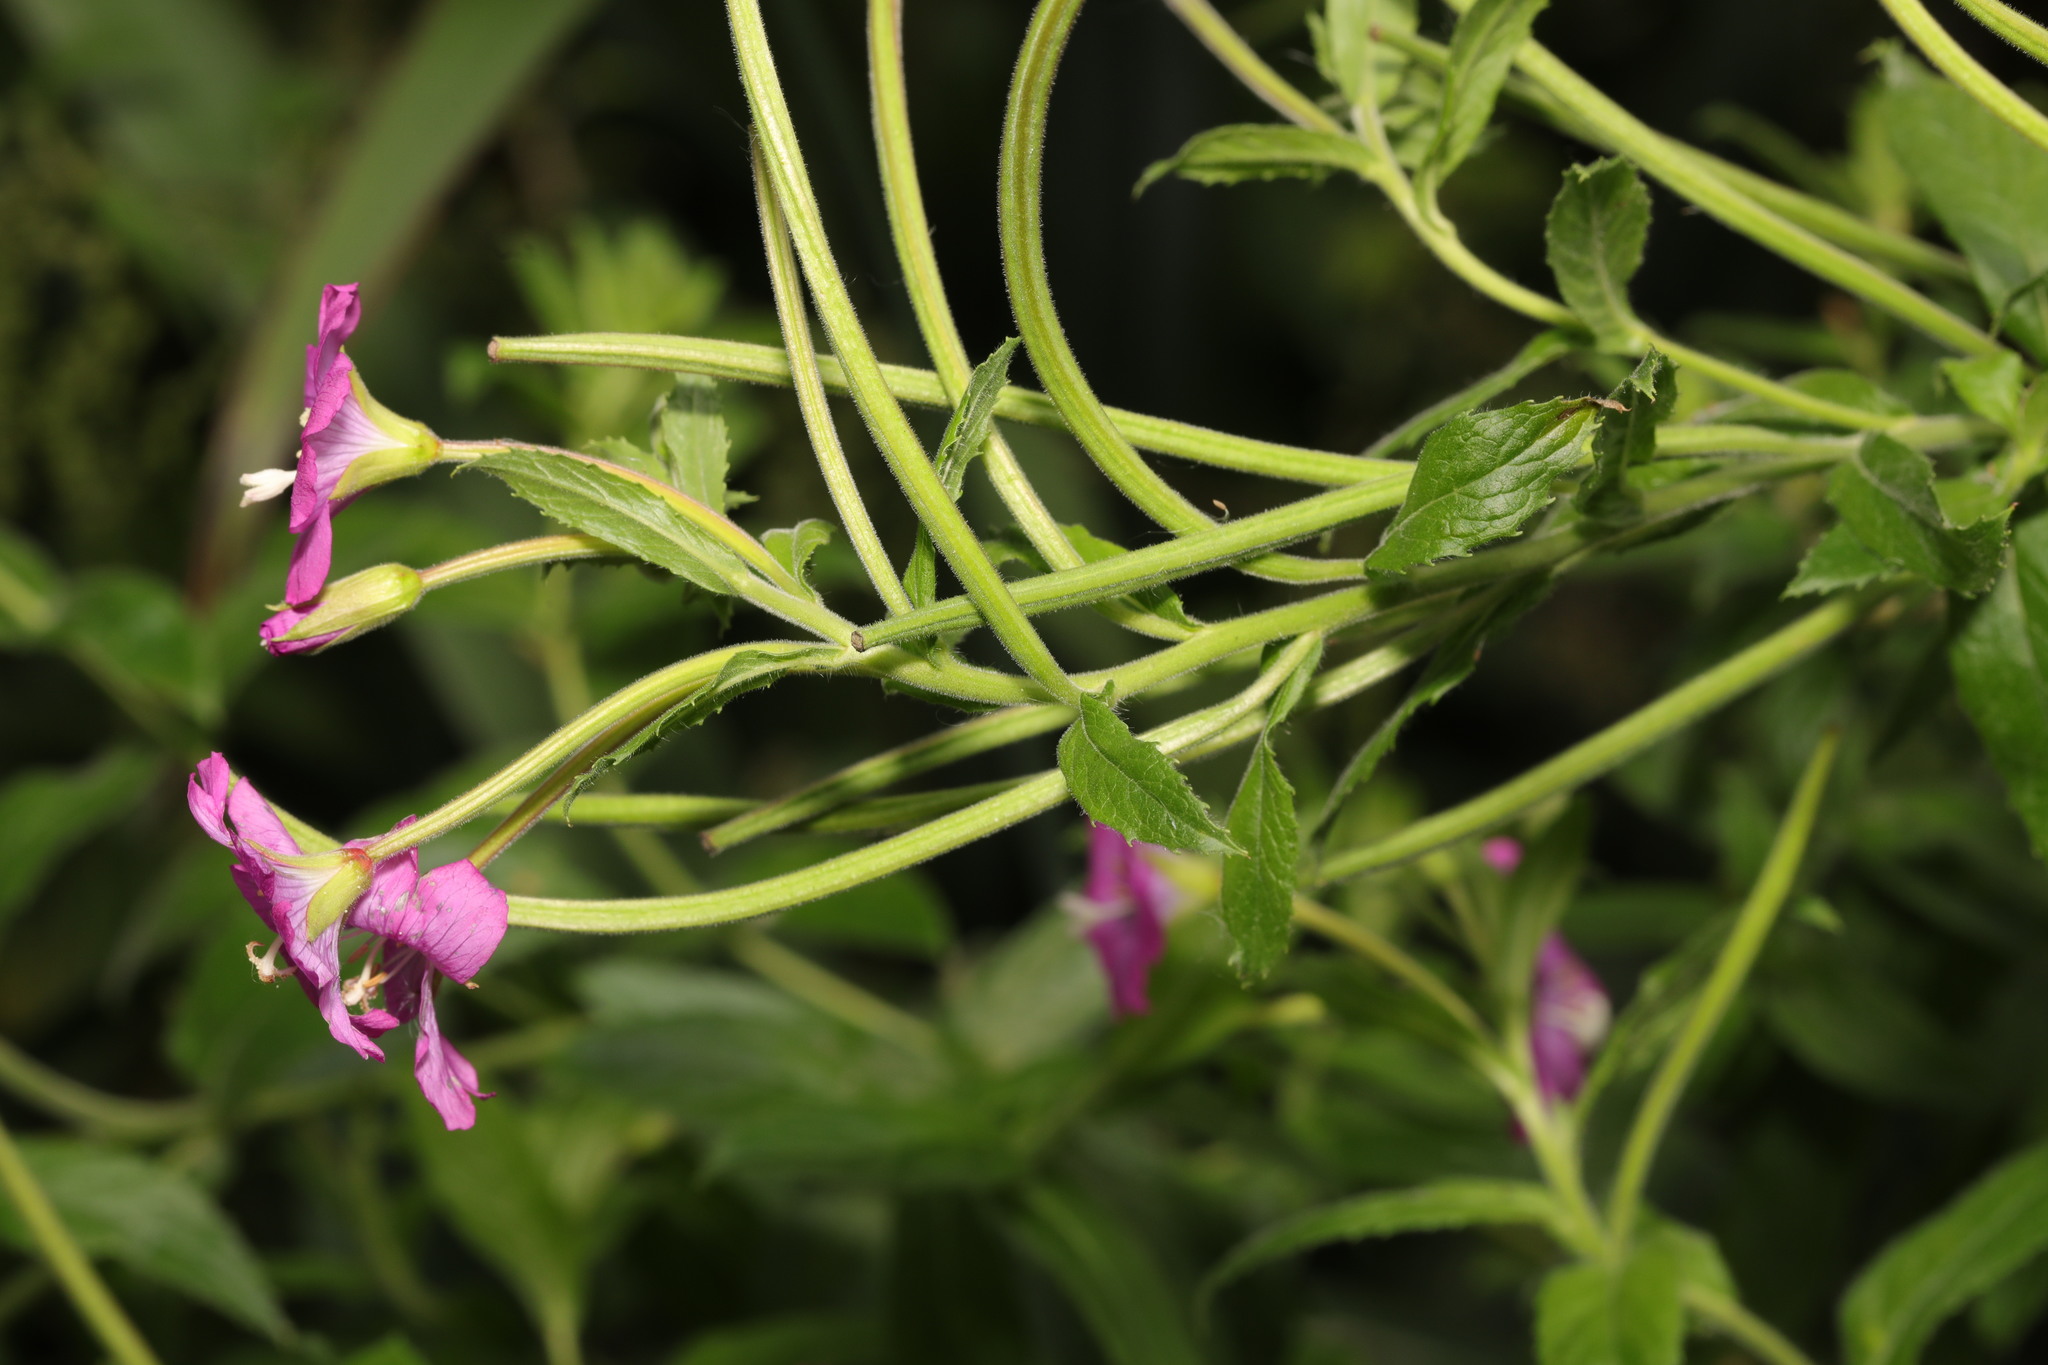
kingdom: Plantae
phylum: Tracheophyta
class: Magnoliopsida
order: Myrtales
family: Onagraceae
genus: Epilobium
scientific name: Epilobium hirsutum
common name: Great willowherb
